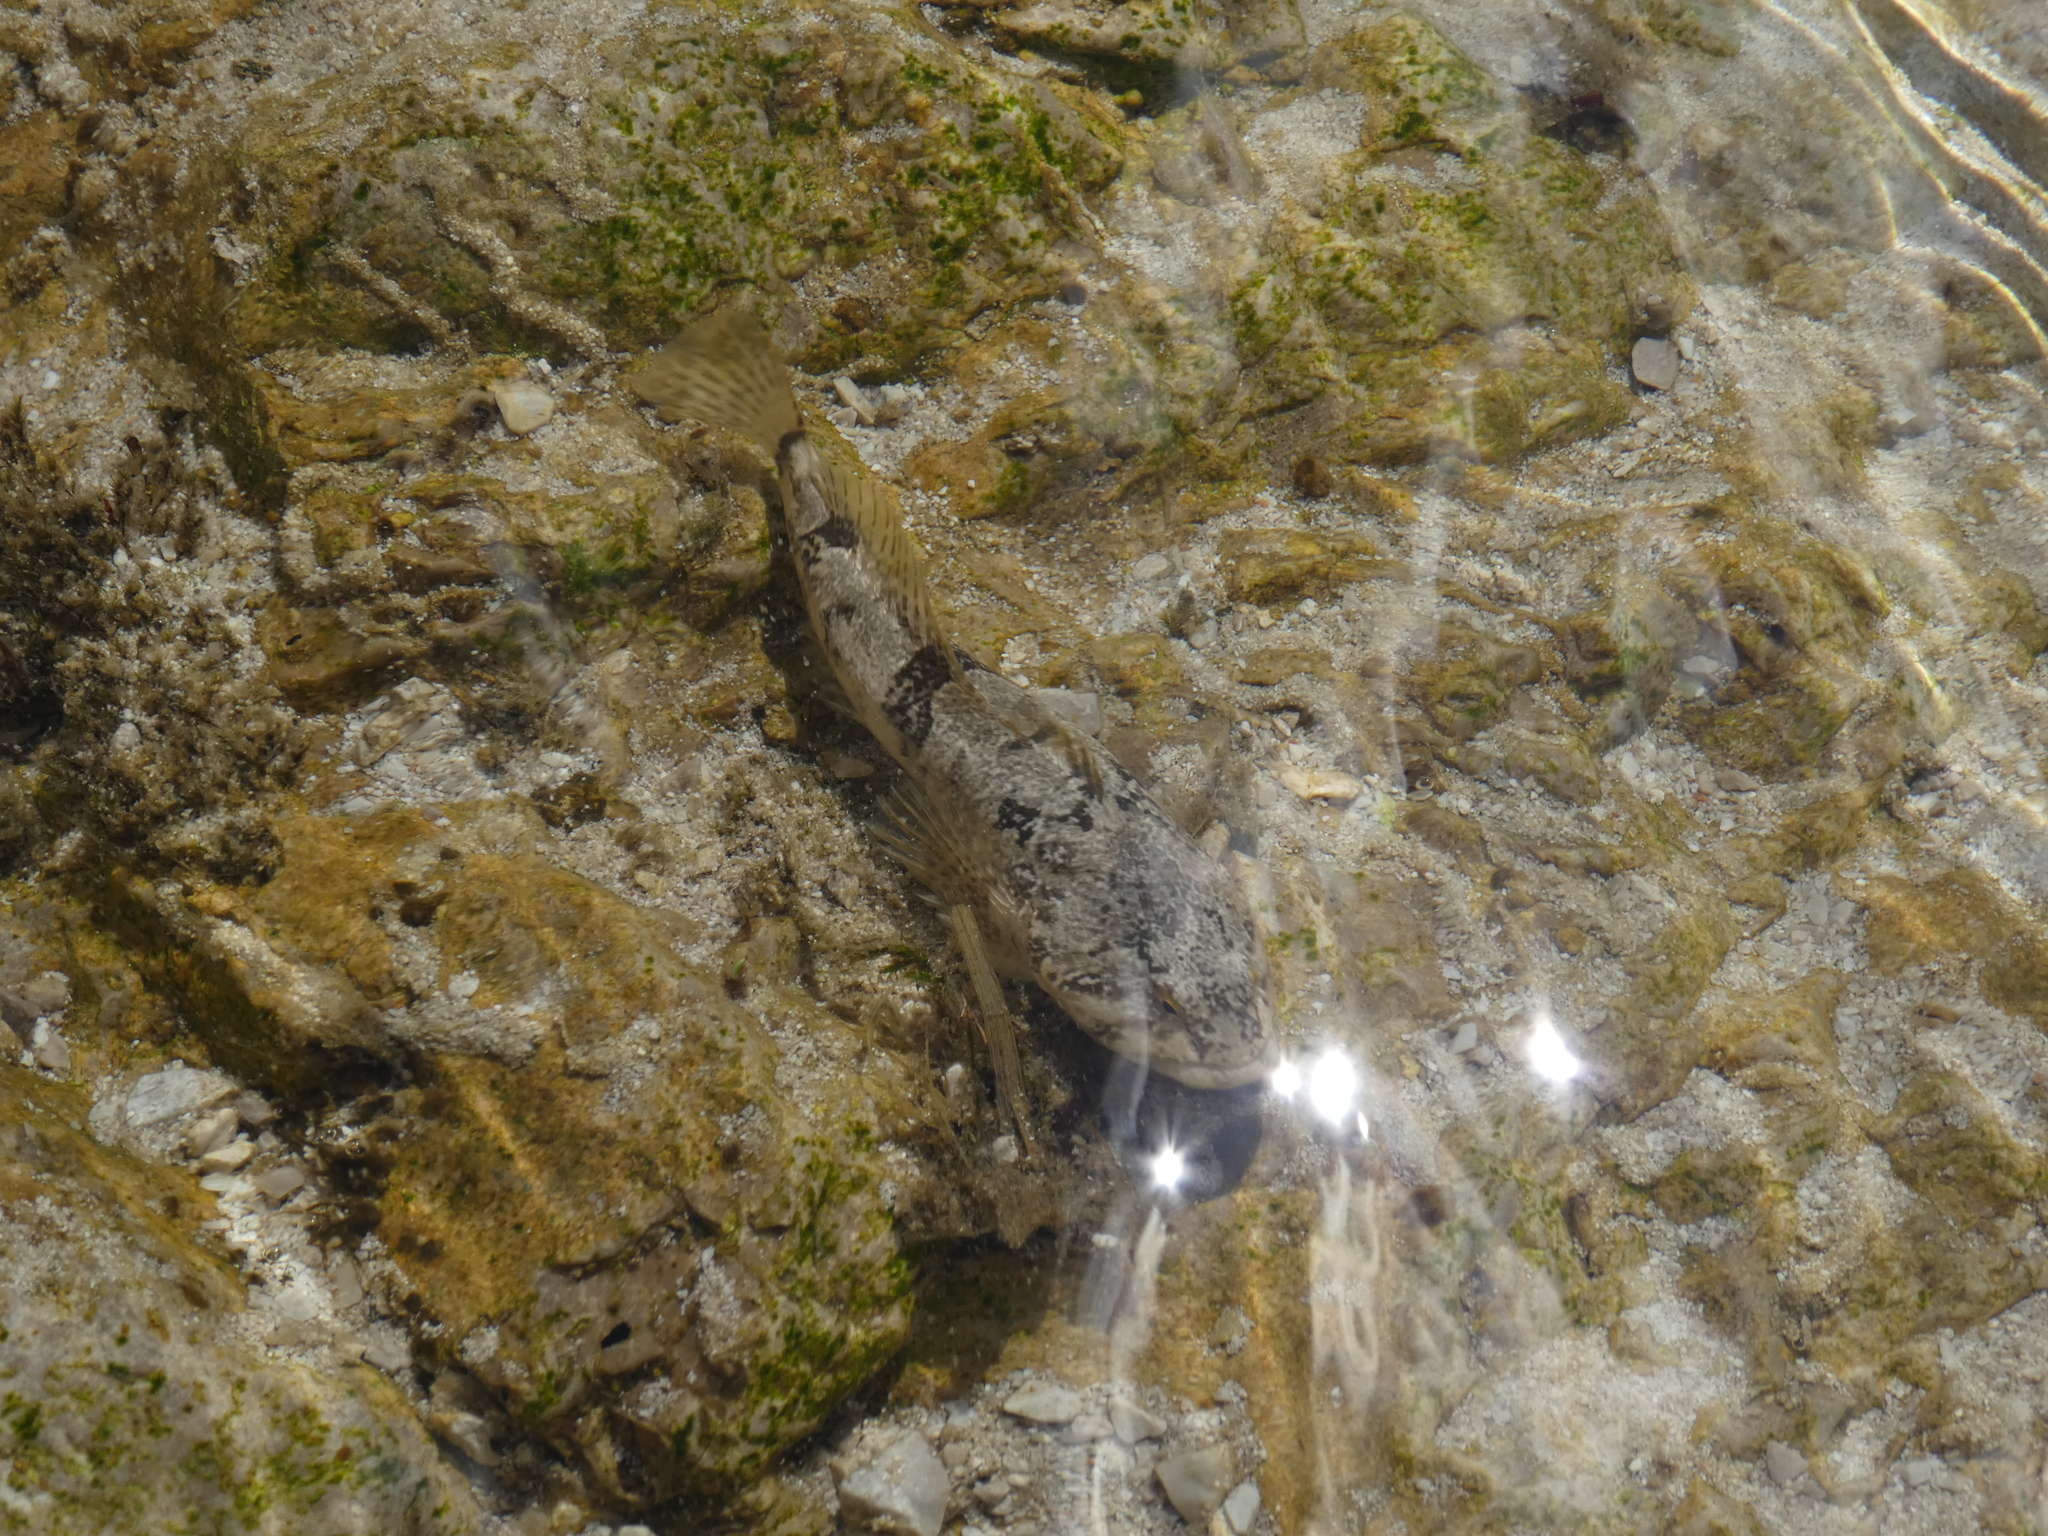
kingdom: Animalia
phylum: Chordata
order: Scorpaeniformes
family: Cottidae
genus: Cottus
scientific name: Cottus gobio
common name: Bullhead
